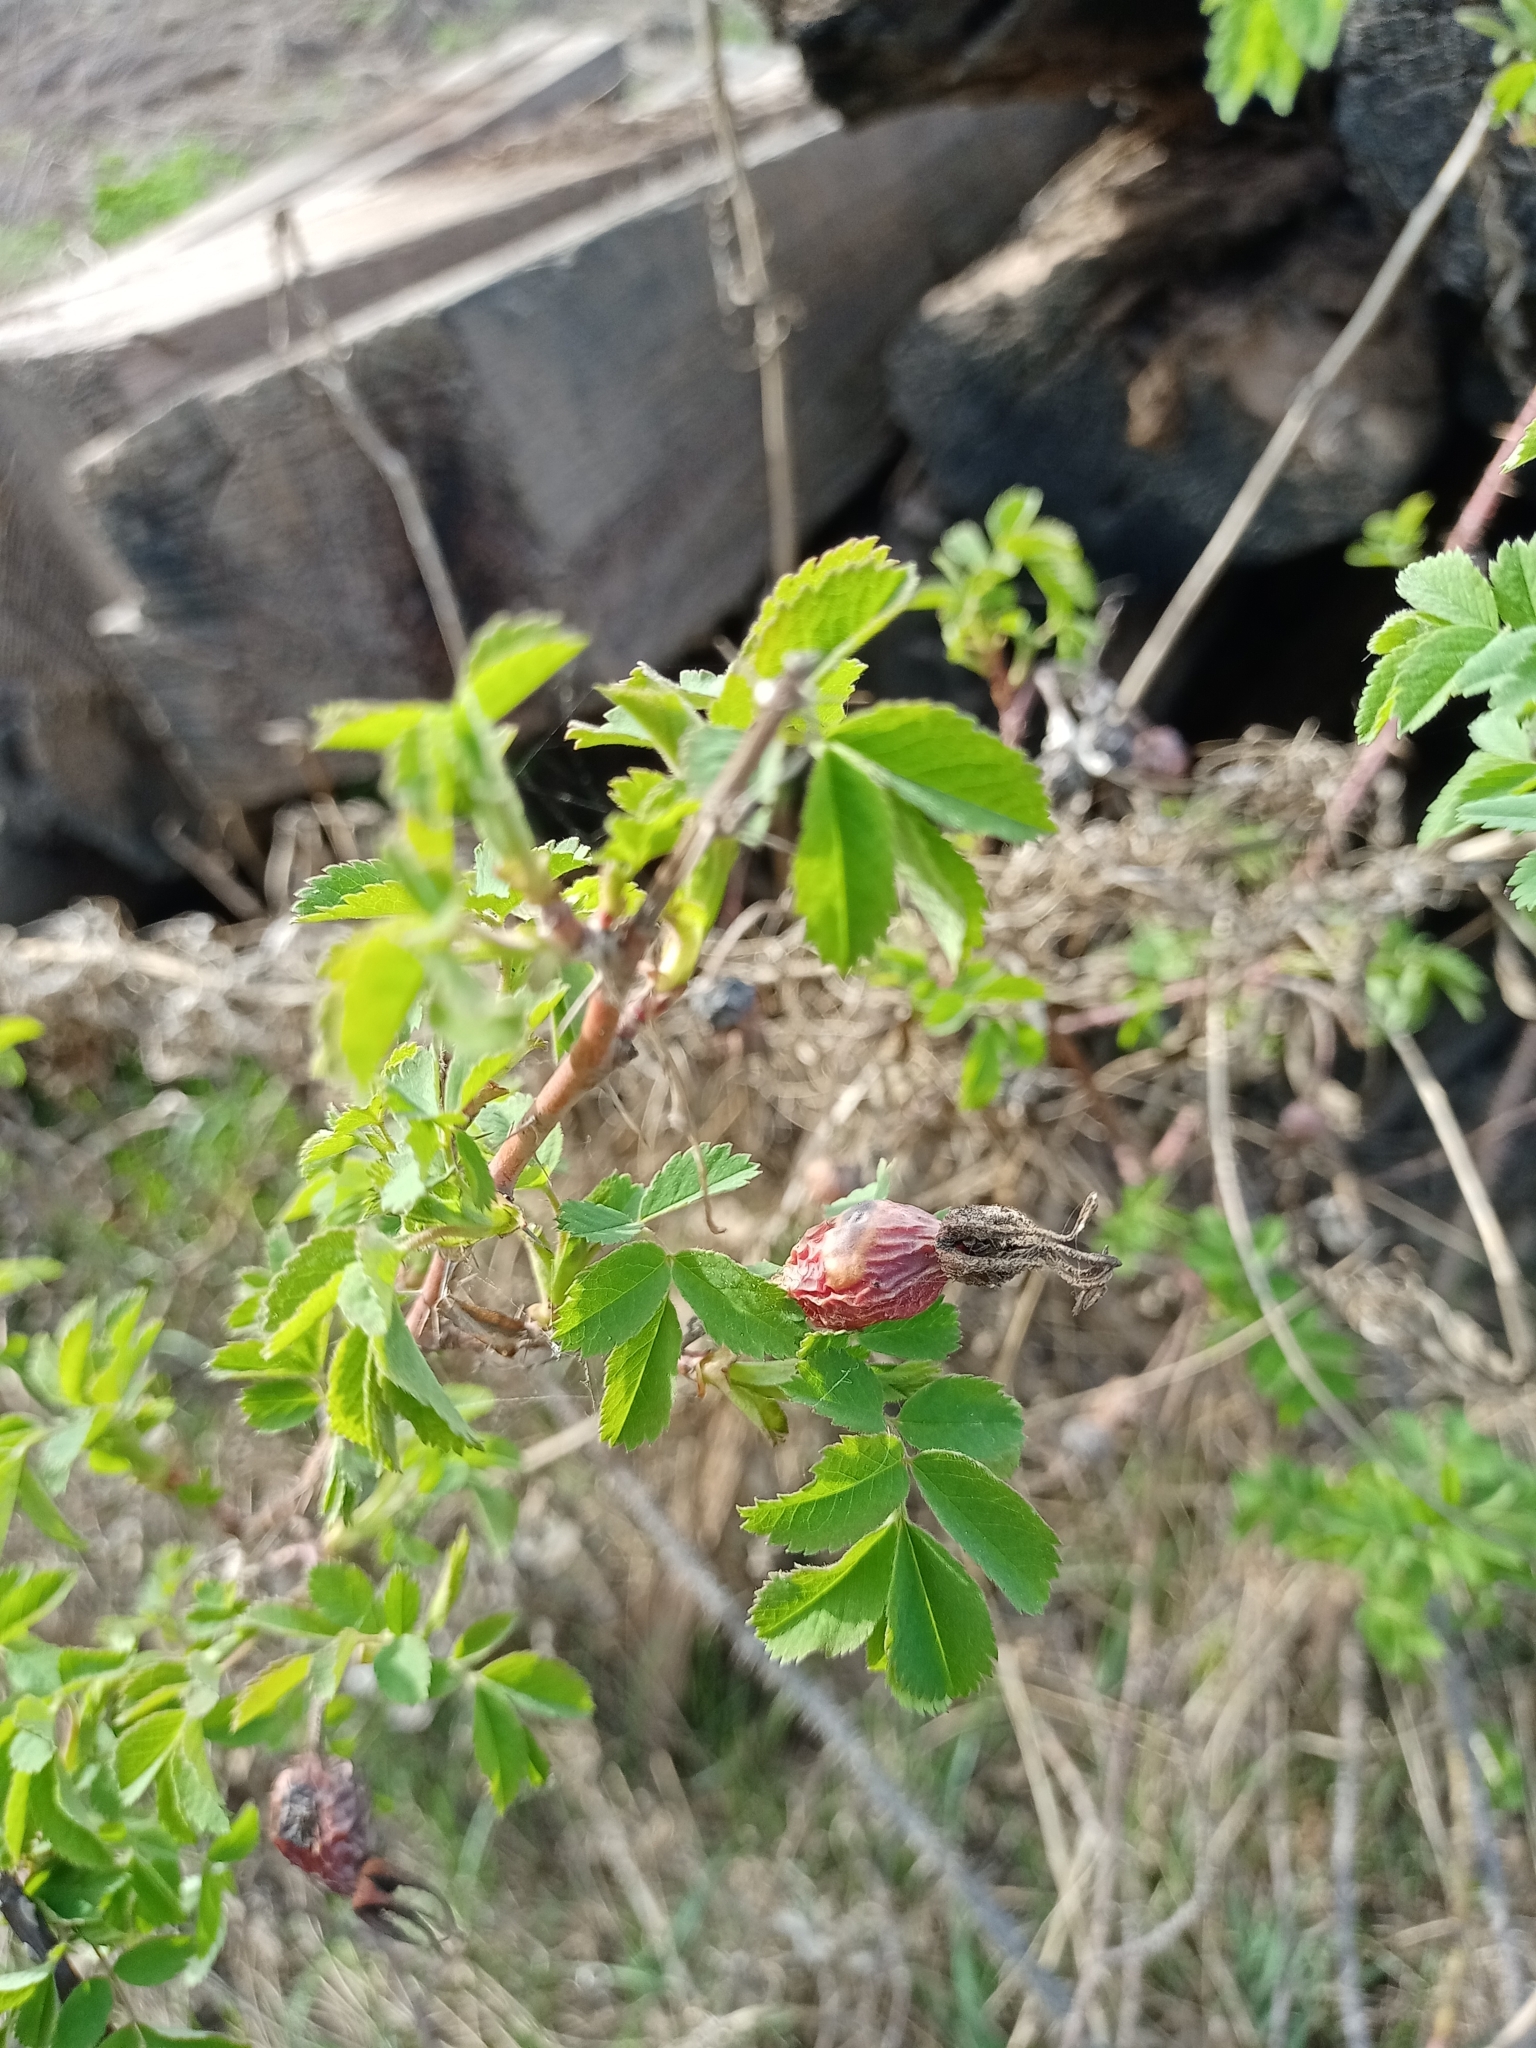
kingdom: Plantae
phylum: Tracheophyta
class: Magnoliopsida
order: Rosales
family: Rosaceae
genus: Rosa
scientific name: Rosa acicularis
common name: Prickly rose
